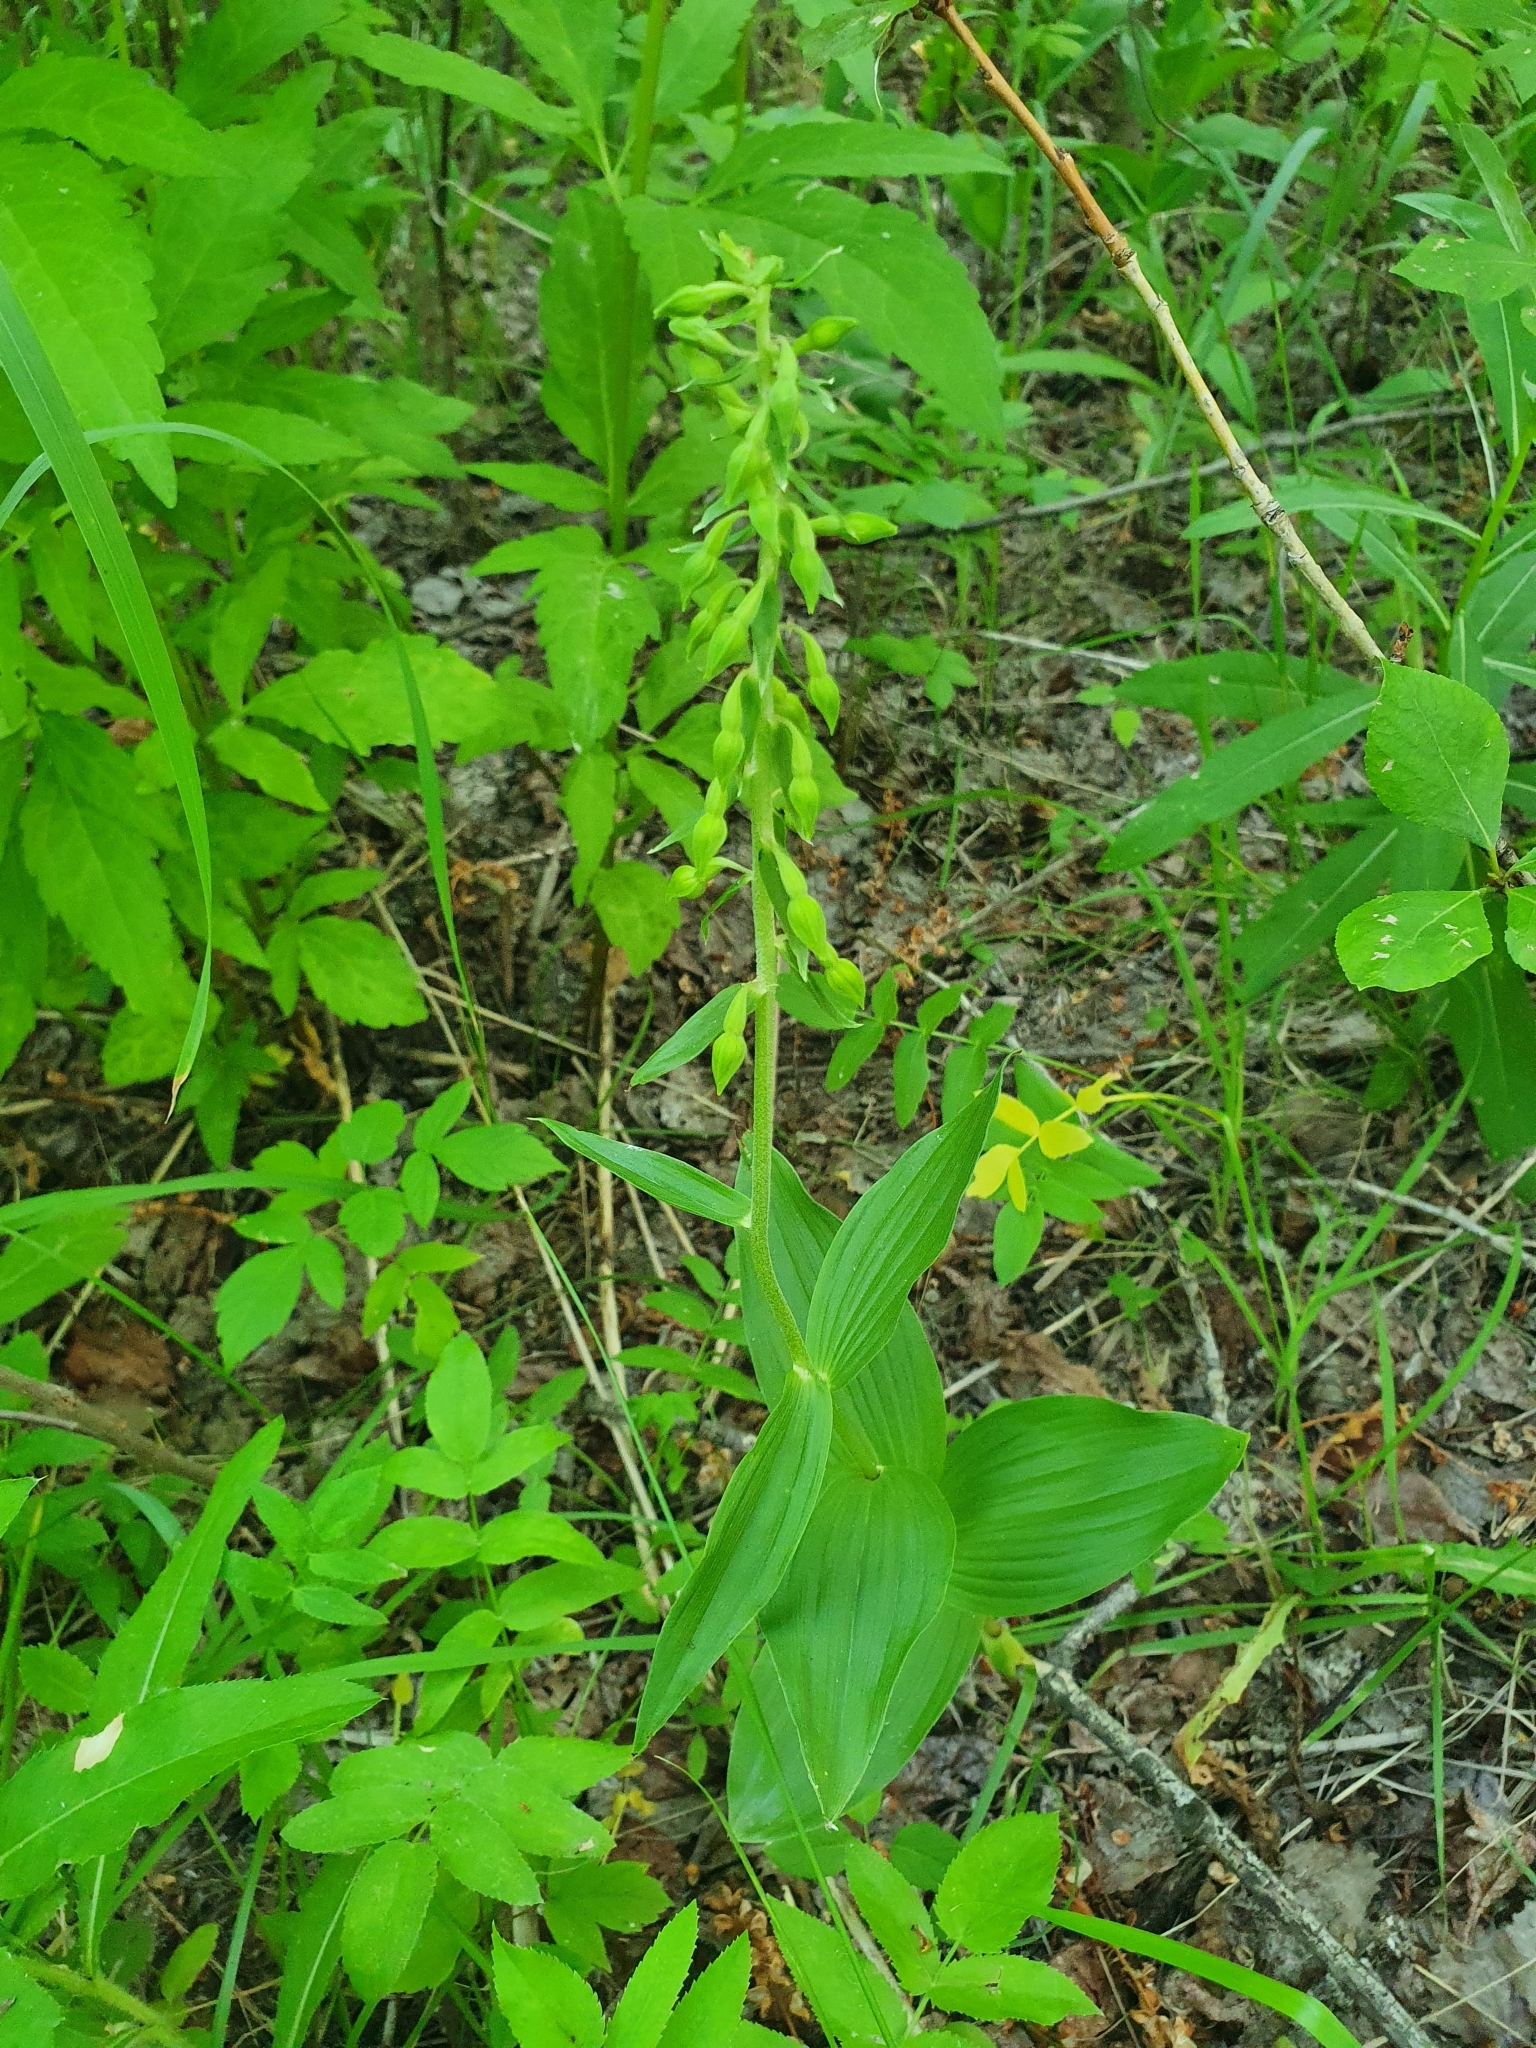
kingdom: Plantae
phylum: Tracheophyta
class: Liliopsida
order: Asparagales
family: Orchidaceae
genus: Epipactis
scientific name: Epipactis helleborine
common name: Broad-leaved helleborine
